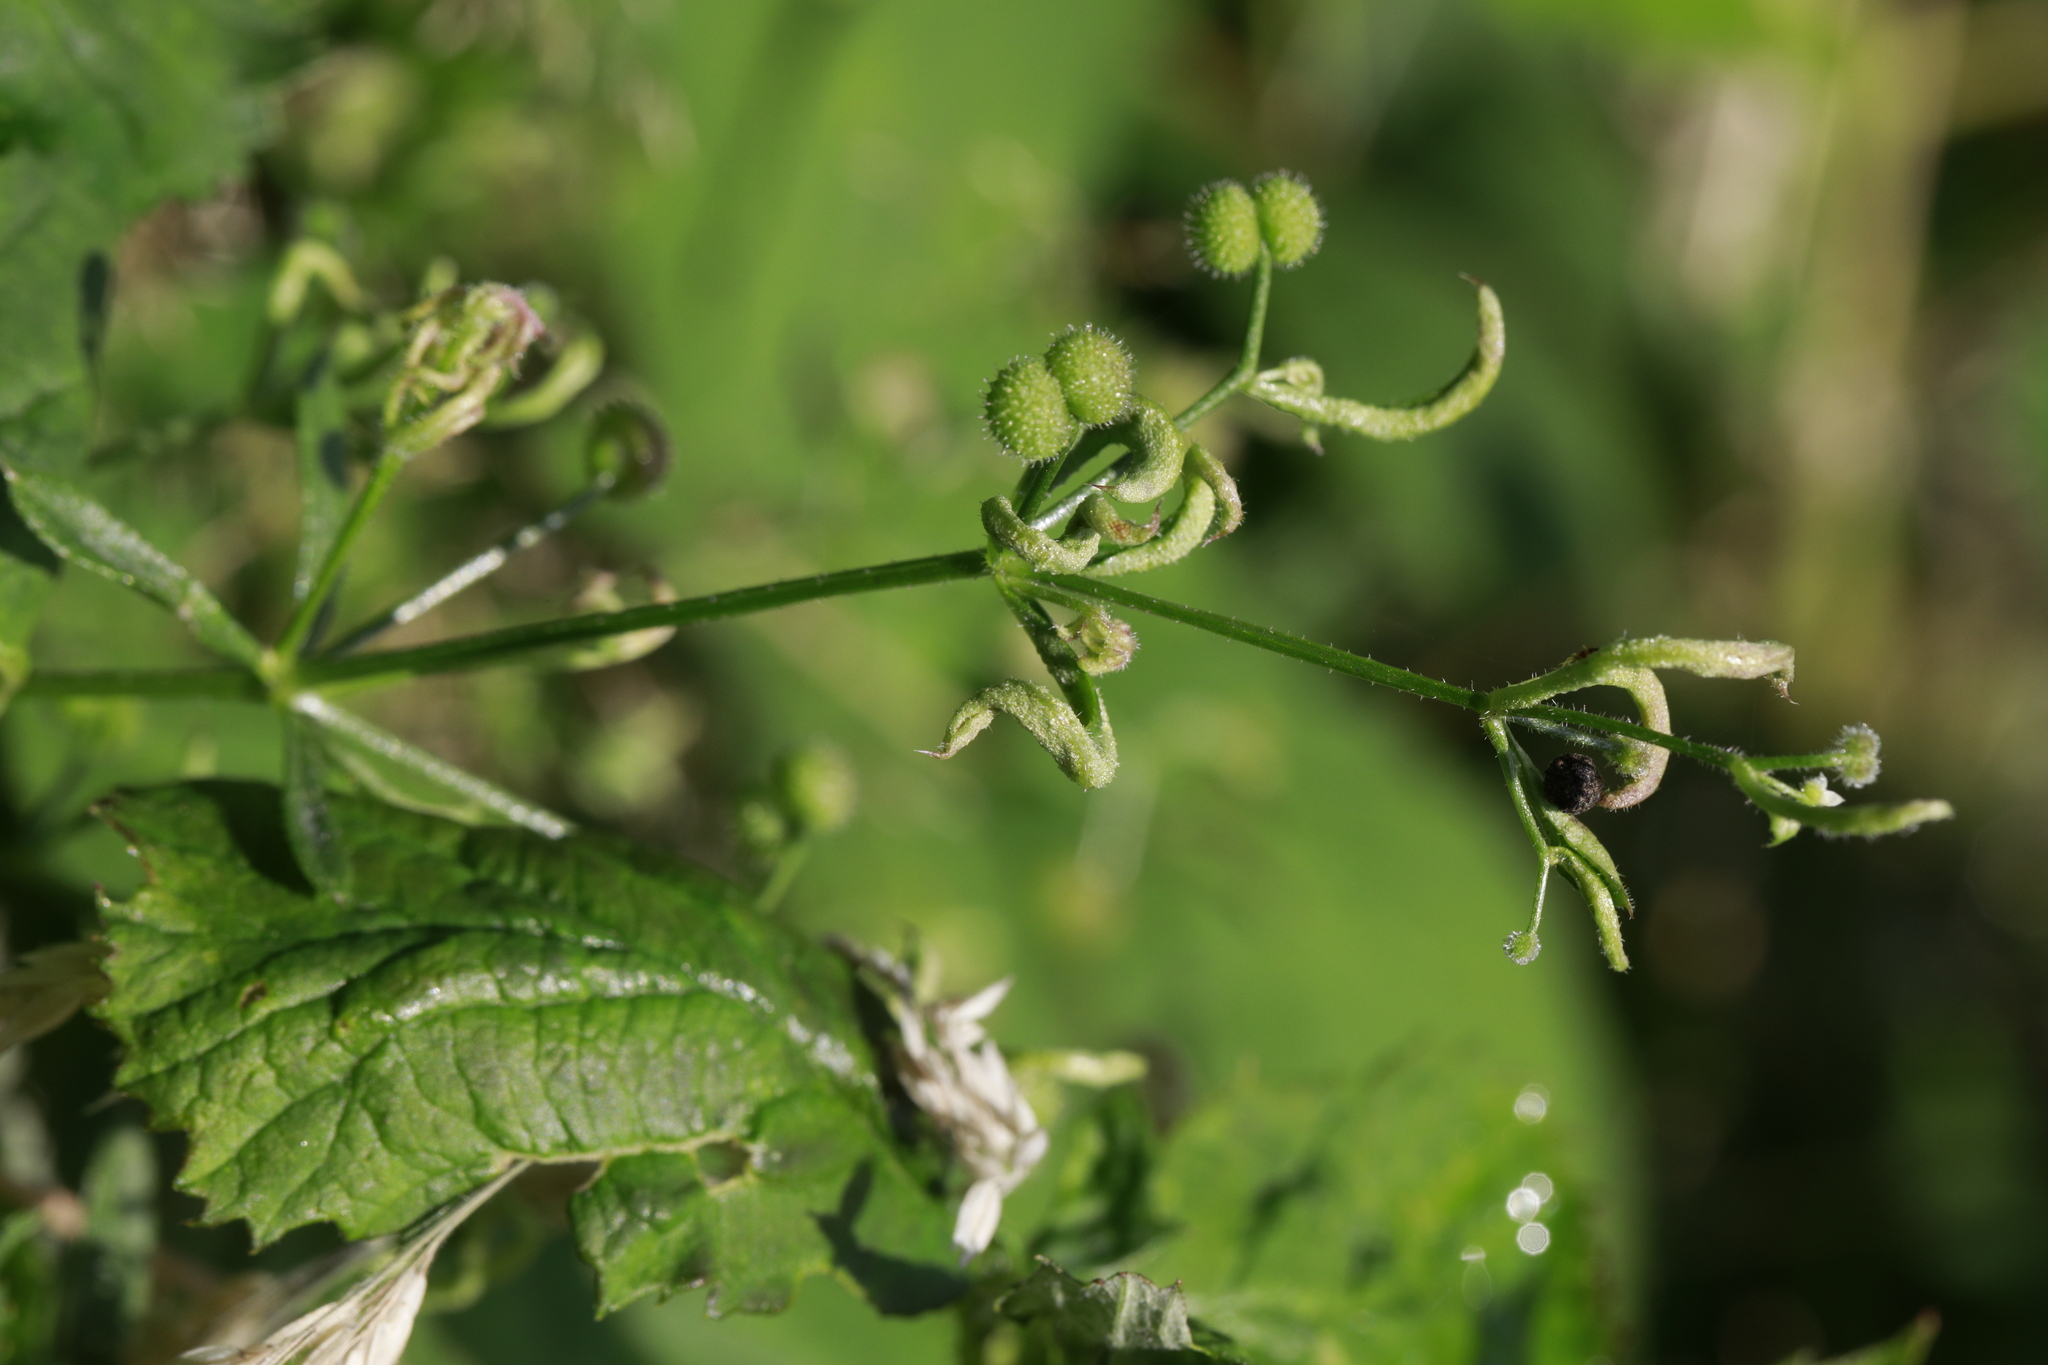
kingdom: Animalia
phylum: Arthropoda
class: Arachnida
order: Trombidiformes
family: Eriophyidae
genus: Cecidophyes
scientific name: Cecidophyes rouhollahi
